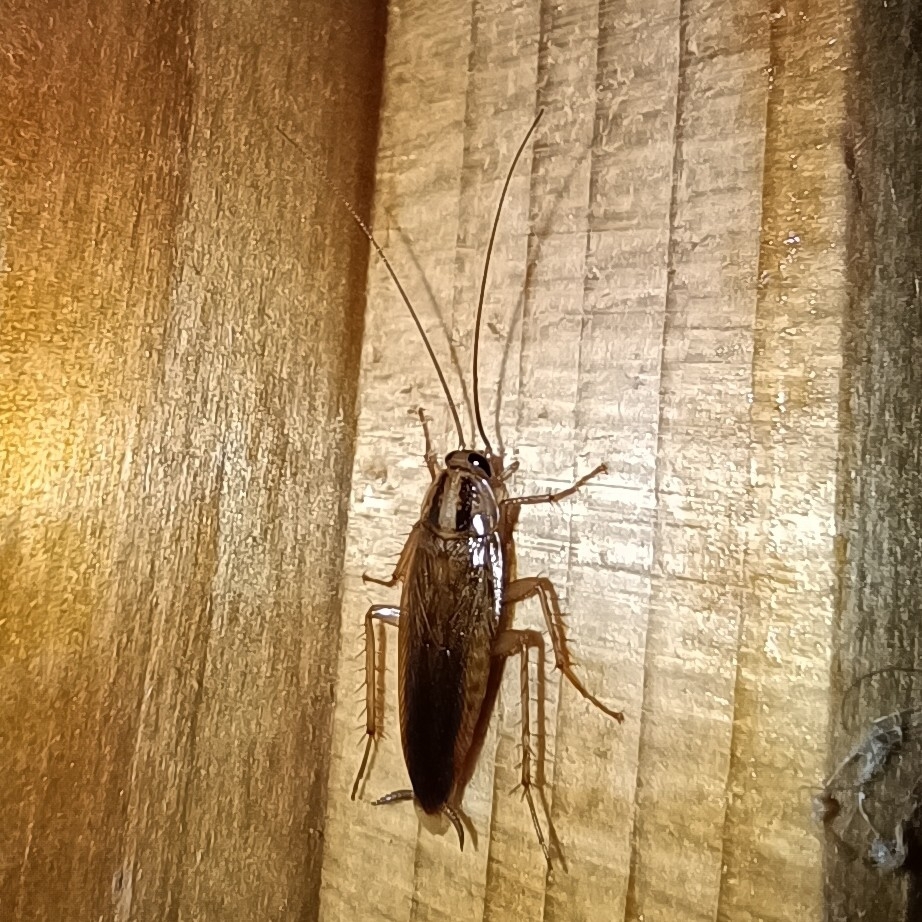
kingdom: Animalia
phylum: Arthropoda
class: Insecta
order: Blattodea
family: Ectobiidae
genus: Blattella
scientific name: Blattella germanica
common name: German cockroach
